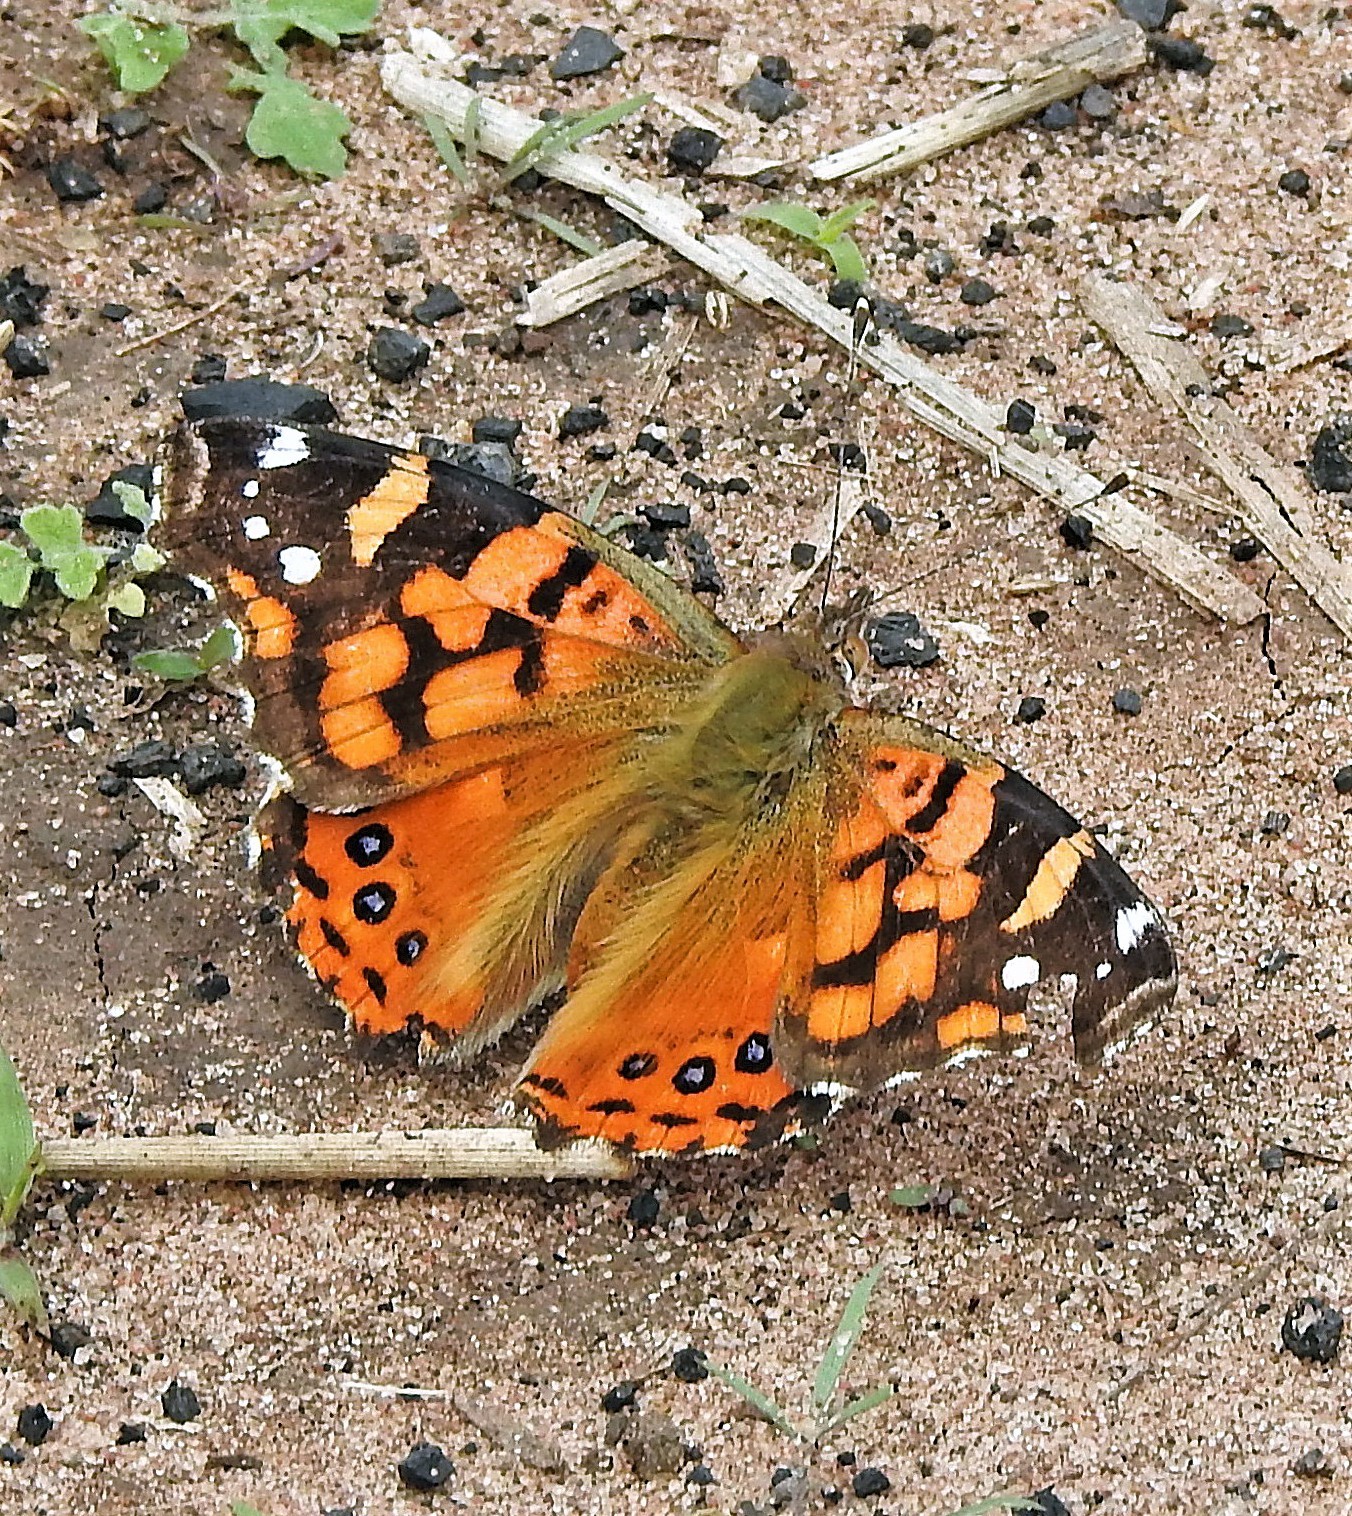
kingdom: Animalia
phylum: Arthropoda
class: Insecta
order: Lepidoptera
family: Nymphalidae
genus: Vanessa
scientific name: Vanessa carye
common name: Subtropical lady
